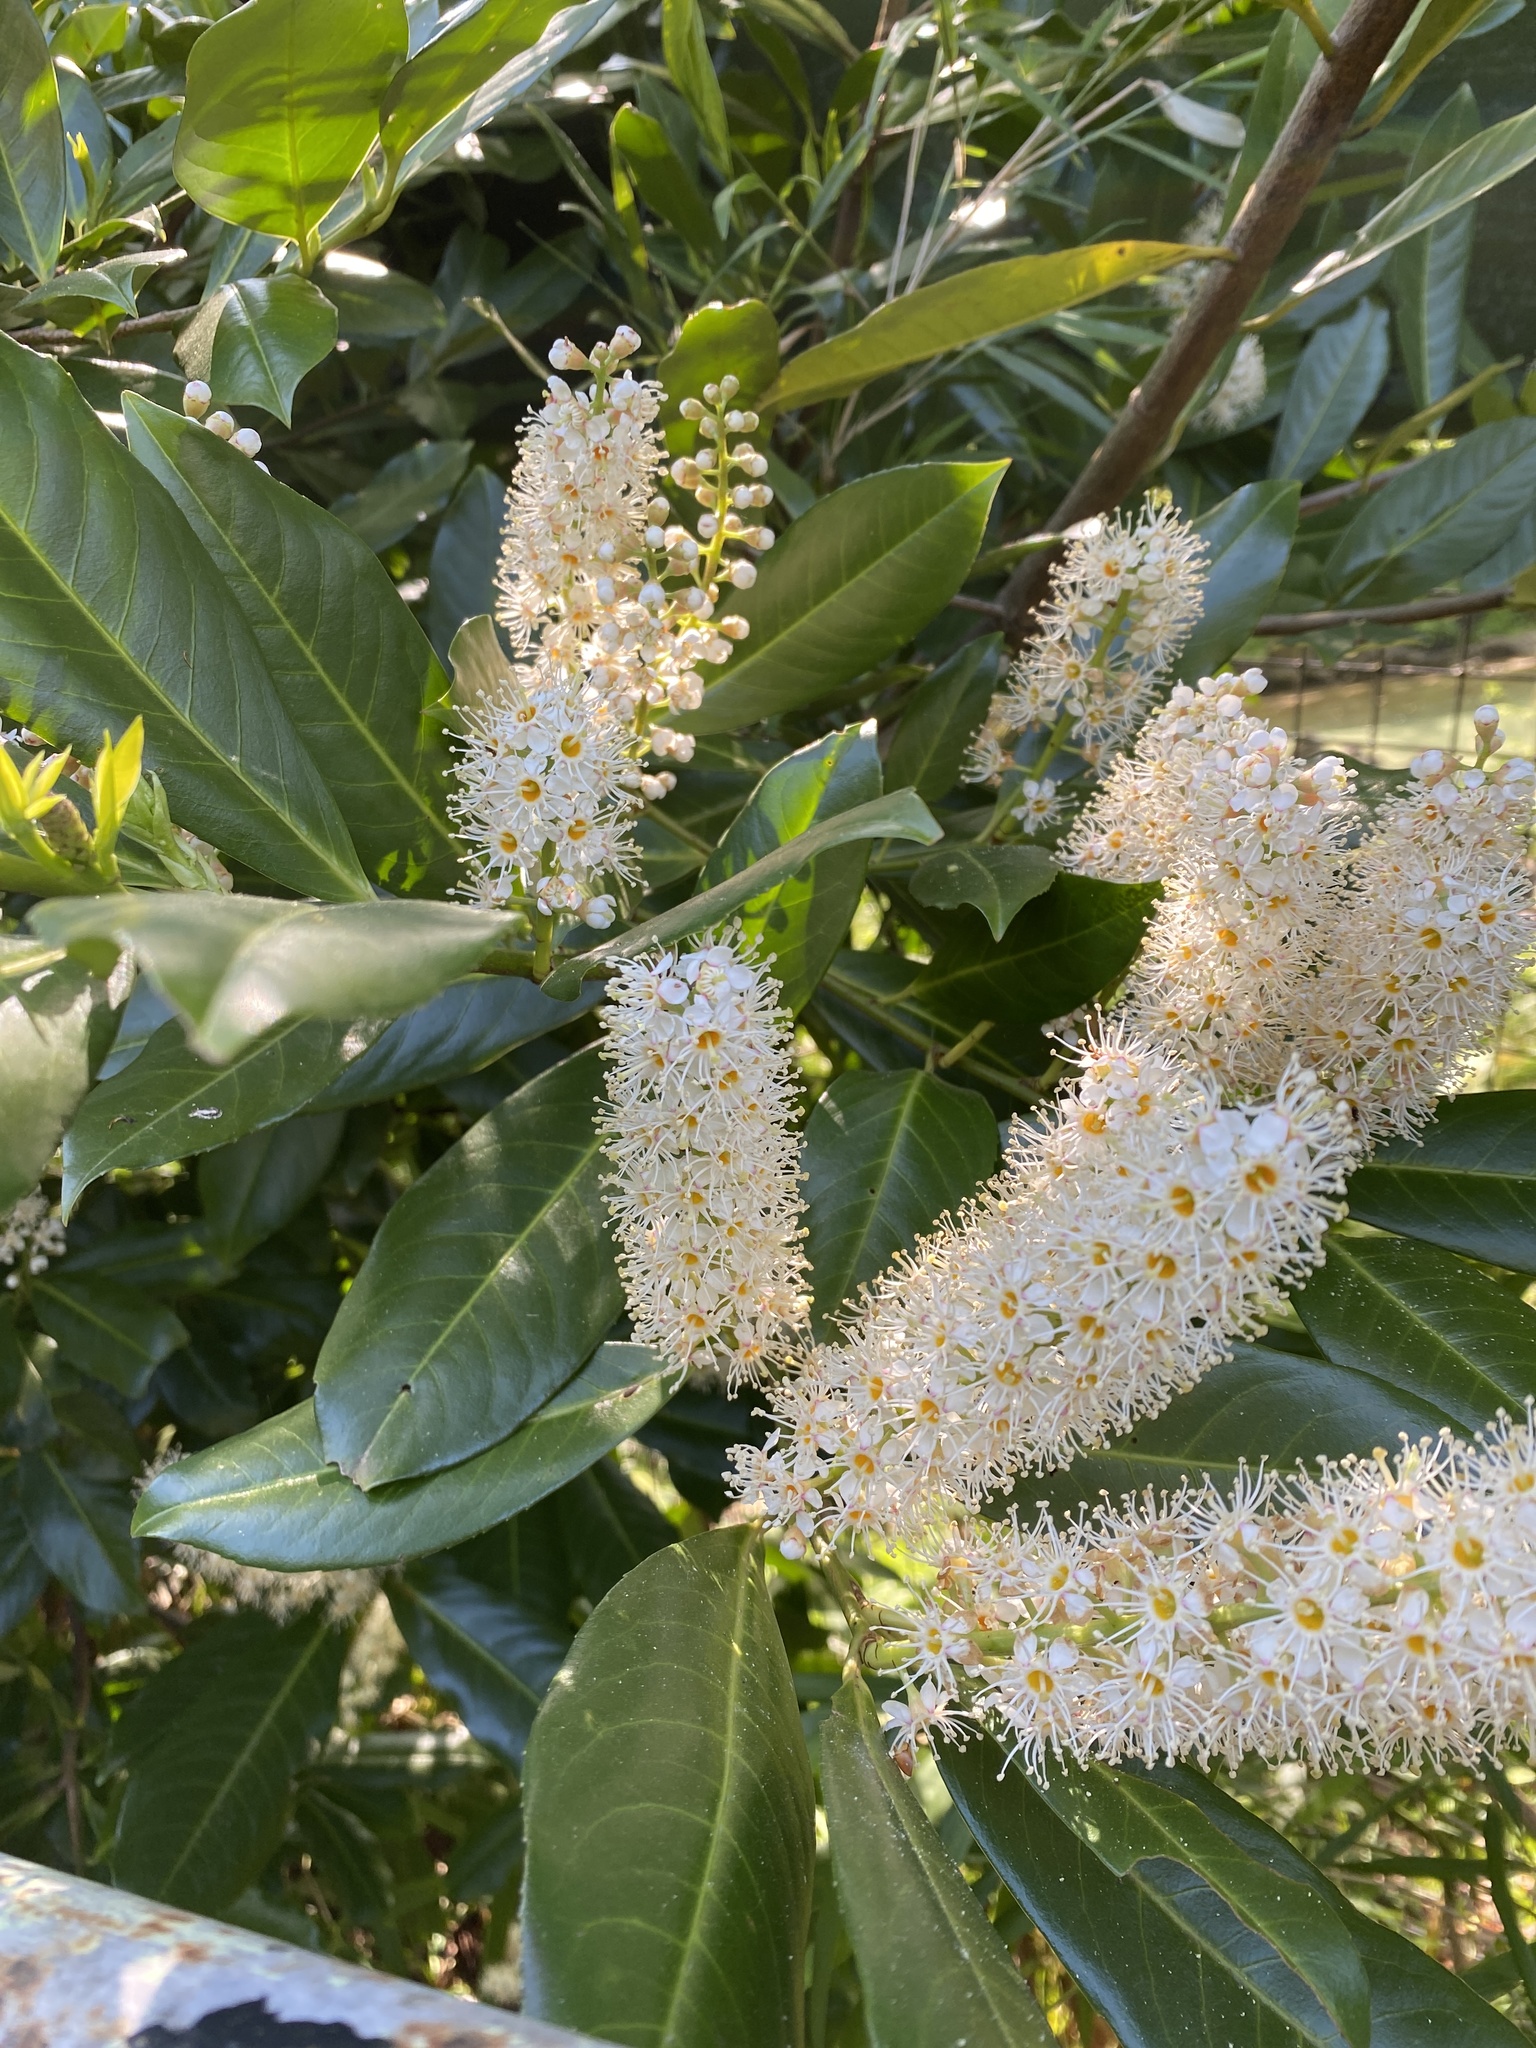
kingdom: Plantae
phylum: Tracheophyta
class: Magnoliopsida
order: Rosales
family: Rosaceae
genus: Prunus
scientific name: Prunus laurocerasus
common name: Cherry laurel
